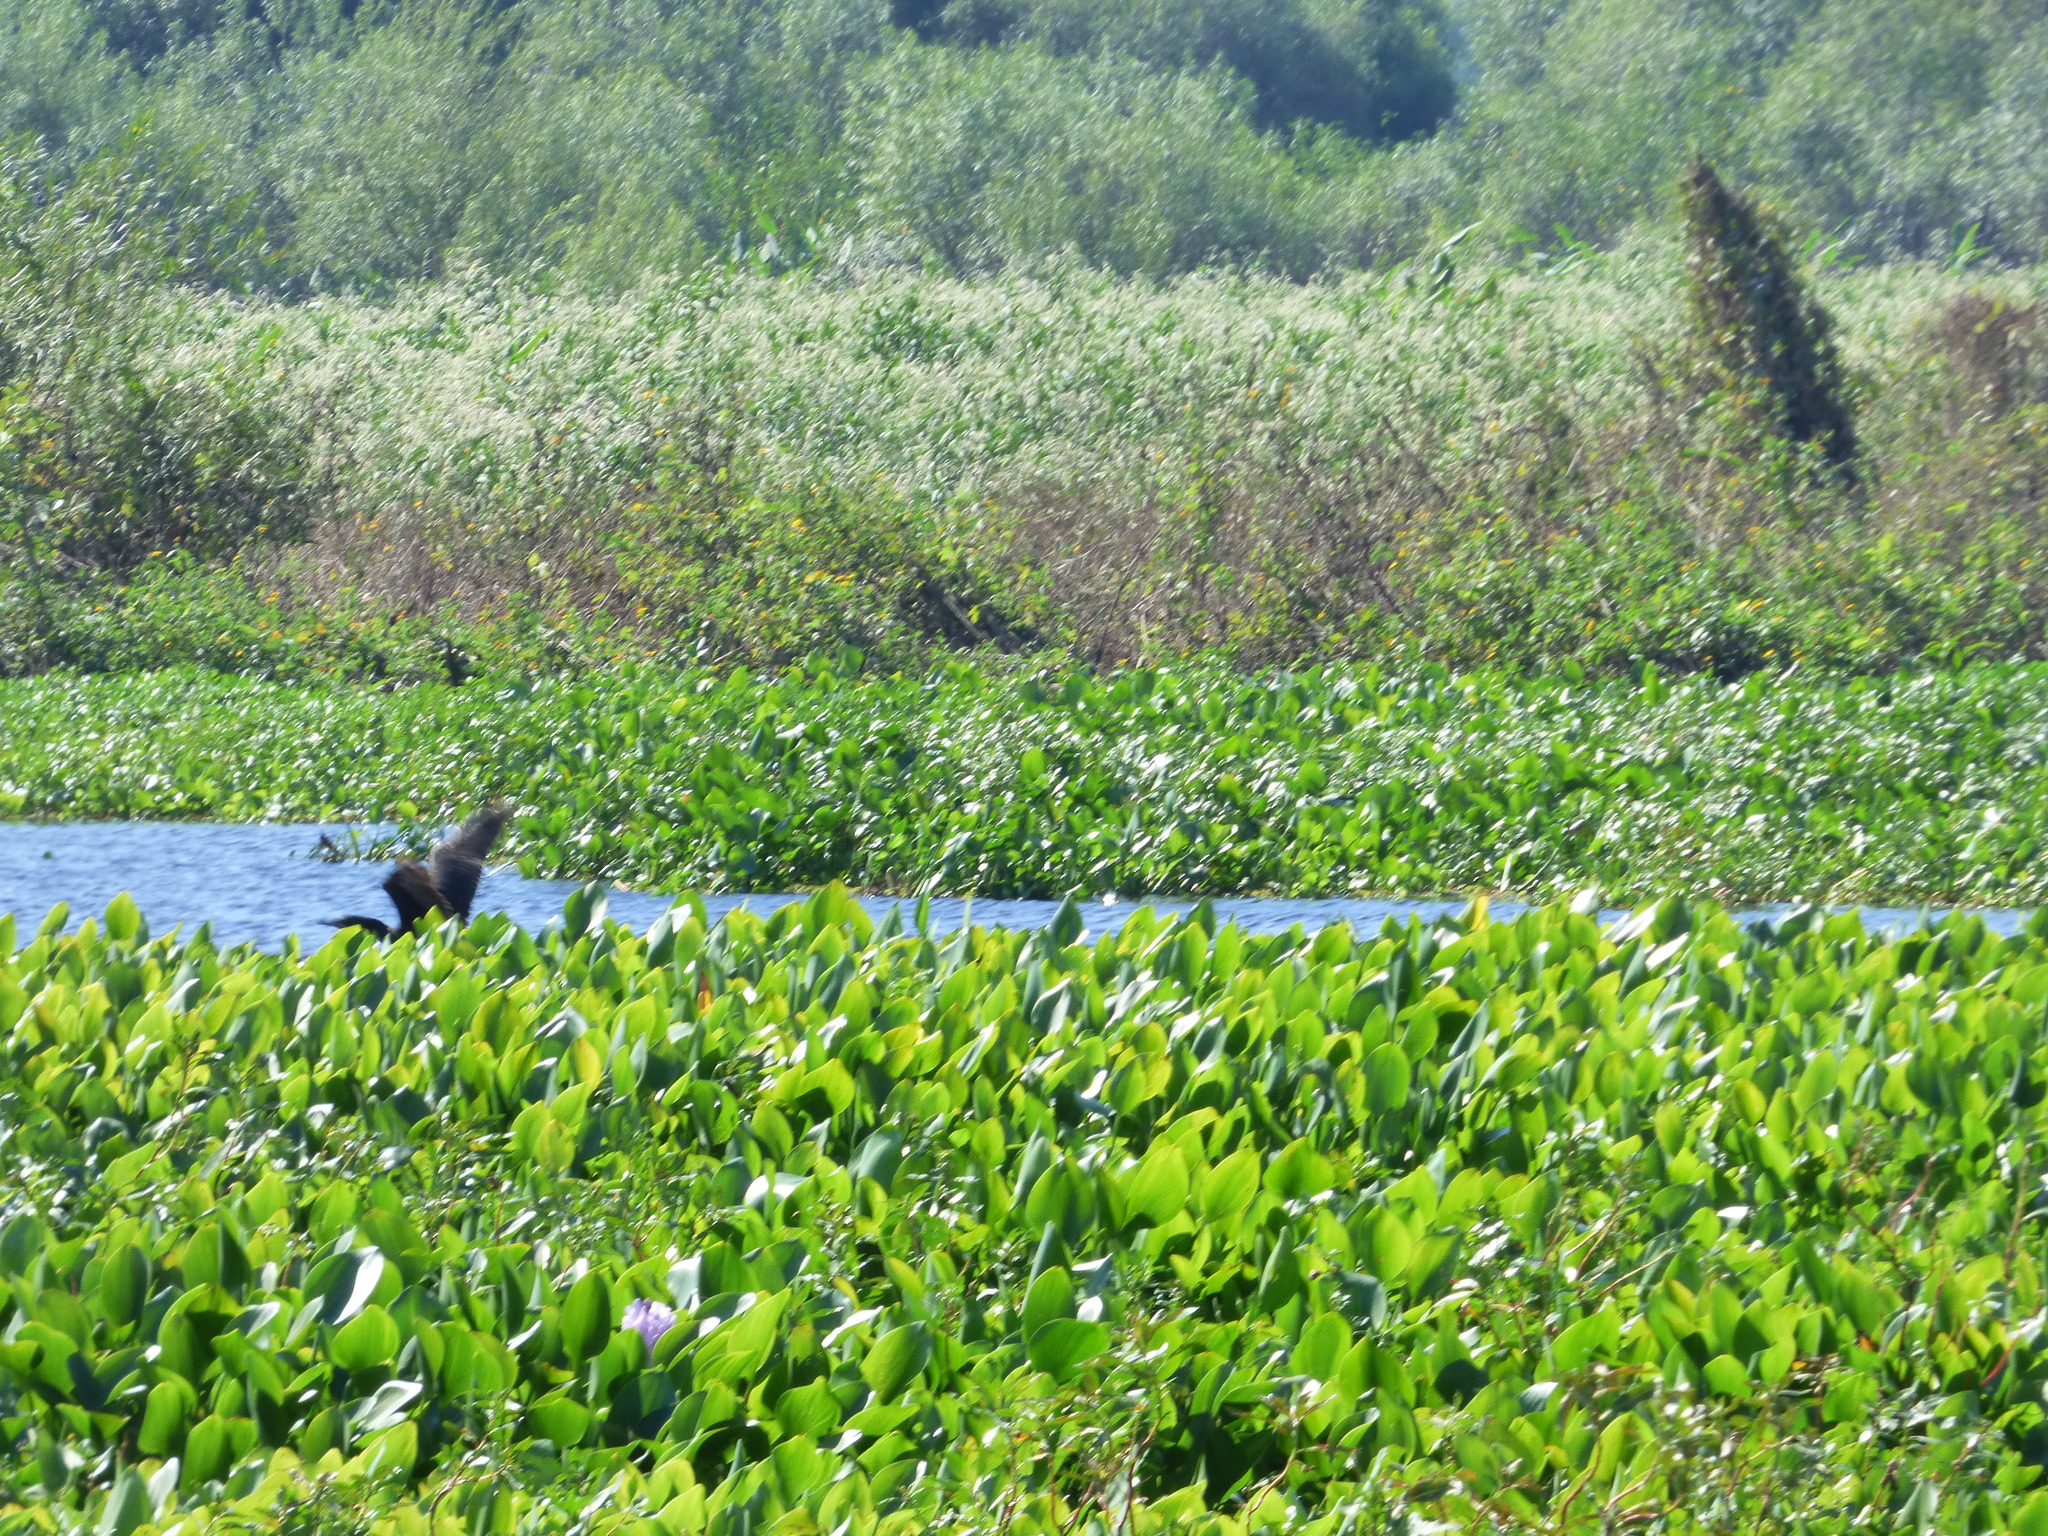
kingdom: Animalia
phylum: Chordata
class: Aves
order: Suliformes
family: Phalacrocoracidae
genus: Phalacrocorax
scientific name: Phalacrocorax brasilianus
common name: Neotropic cormorant
